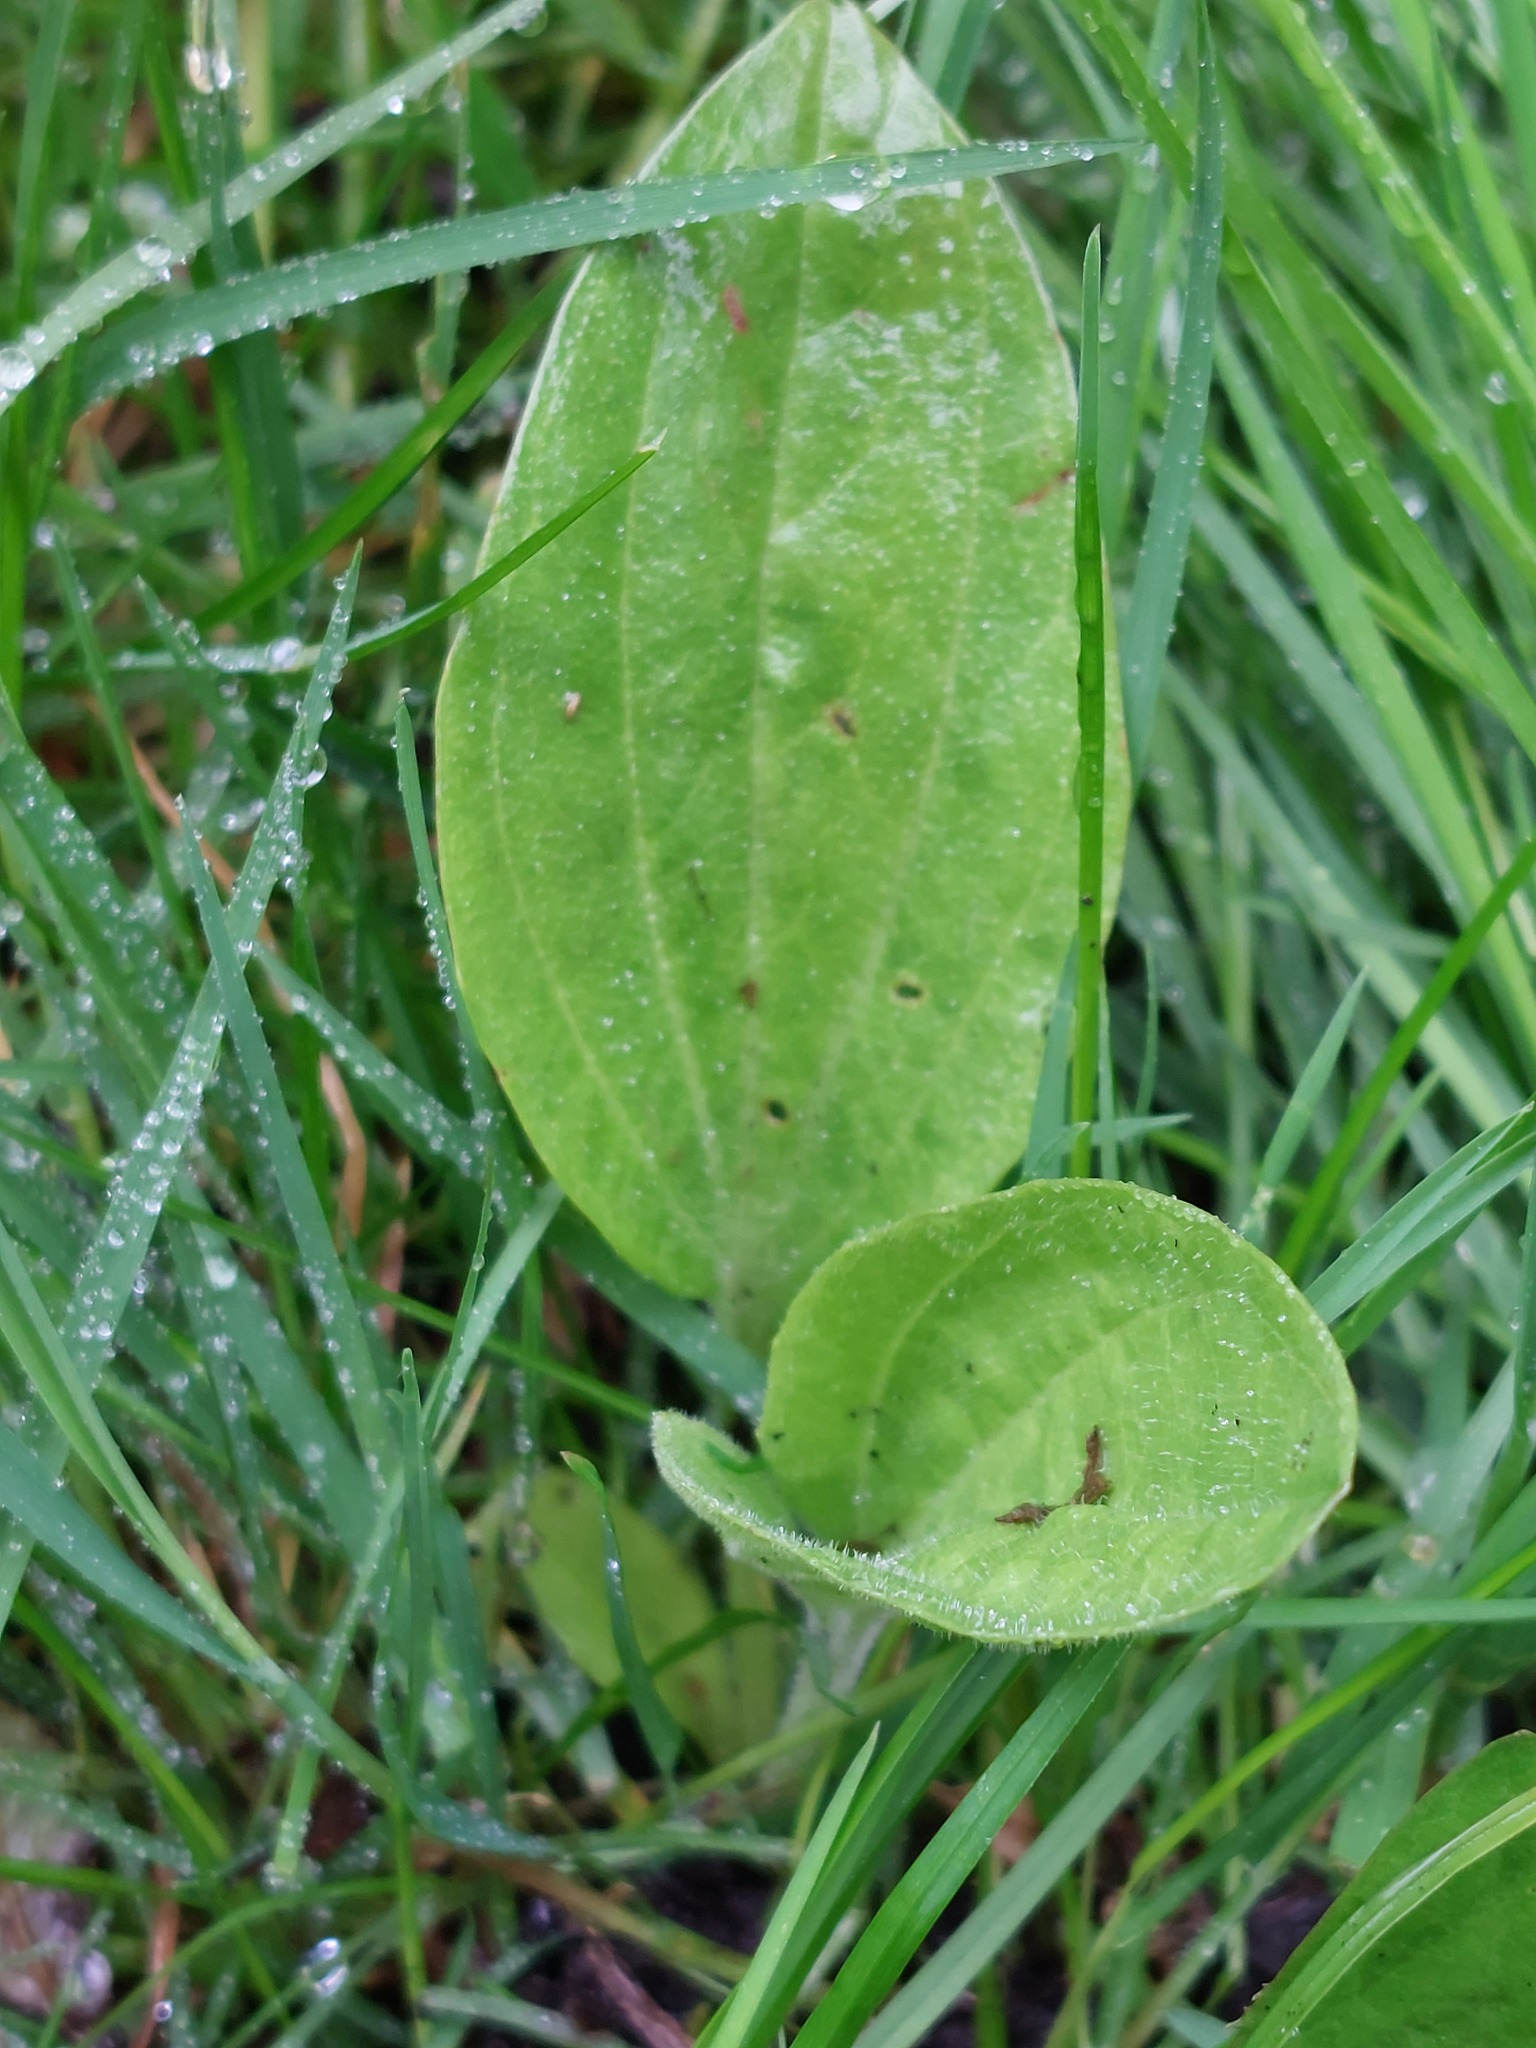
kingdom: Plantae
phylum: Tracheophyta
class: Magnoliopsida
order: Lamiales
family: Plantaginaceae
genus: Plantago
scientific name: Plantago major
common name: Common plantain
